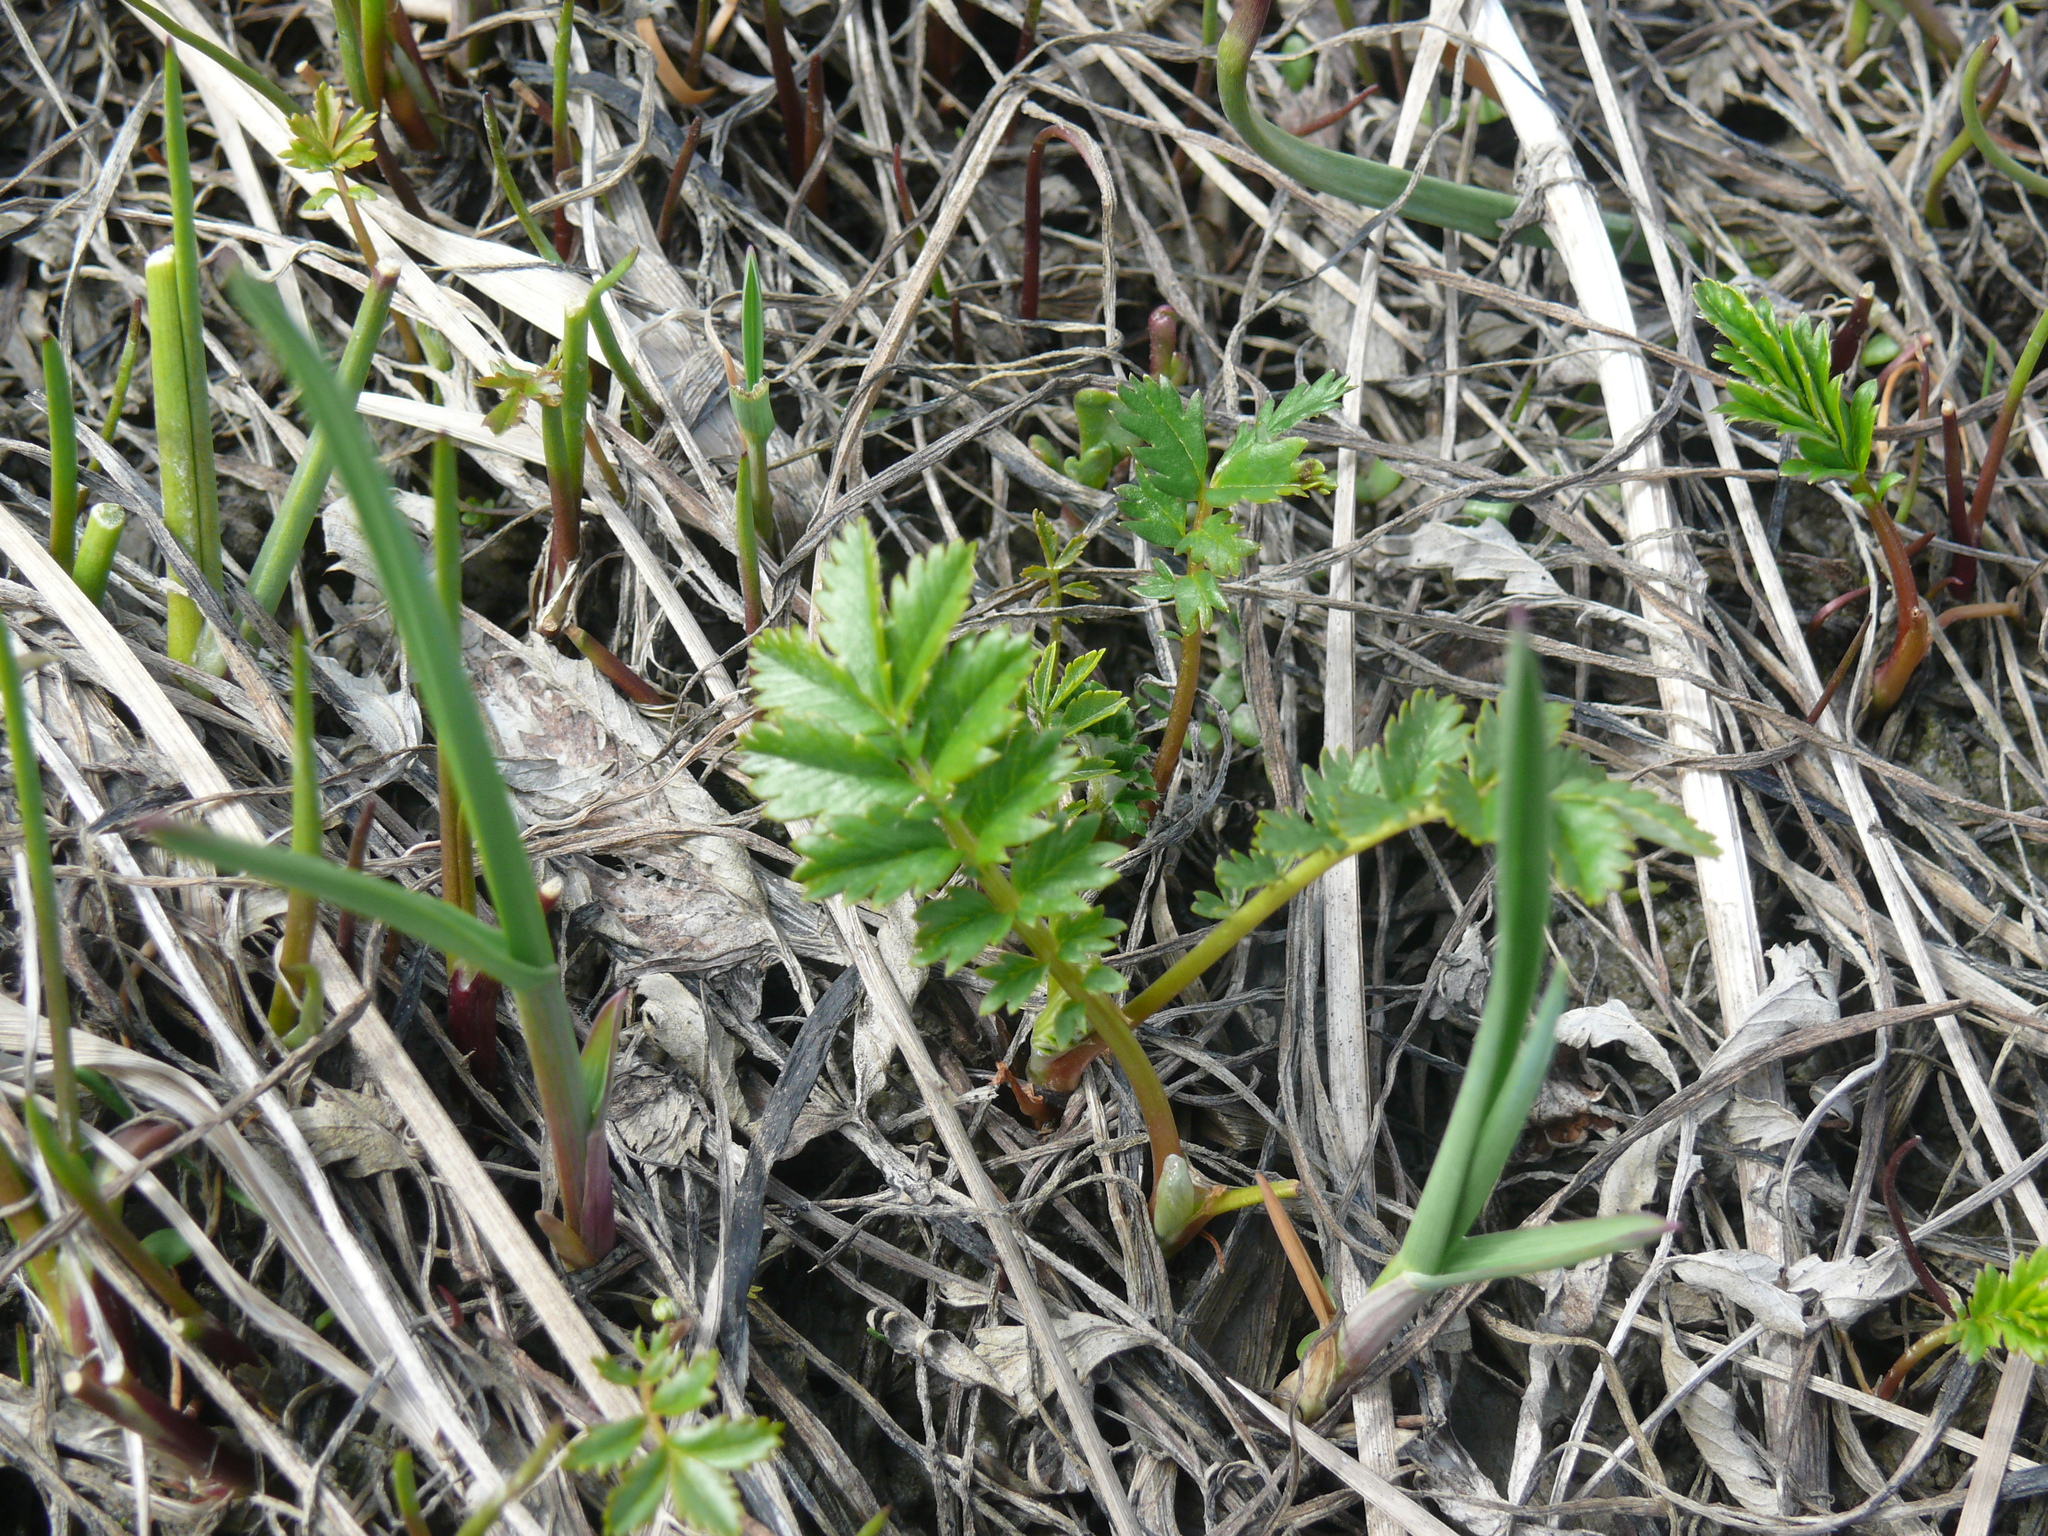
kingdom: Plantae
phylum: Tracheophyta
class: Magnoliopsida
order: Rosales
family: Rosaceae
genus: Argentina
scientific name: Argentina anserina
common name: Common silverweed
